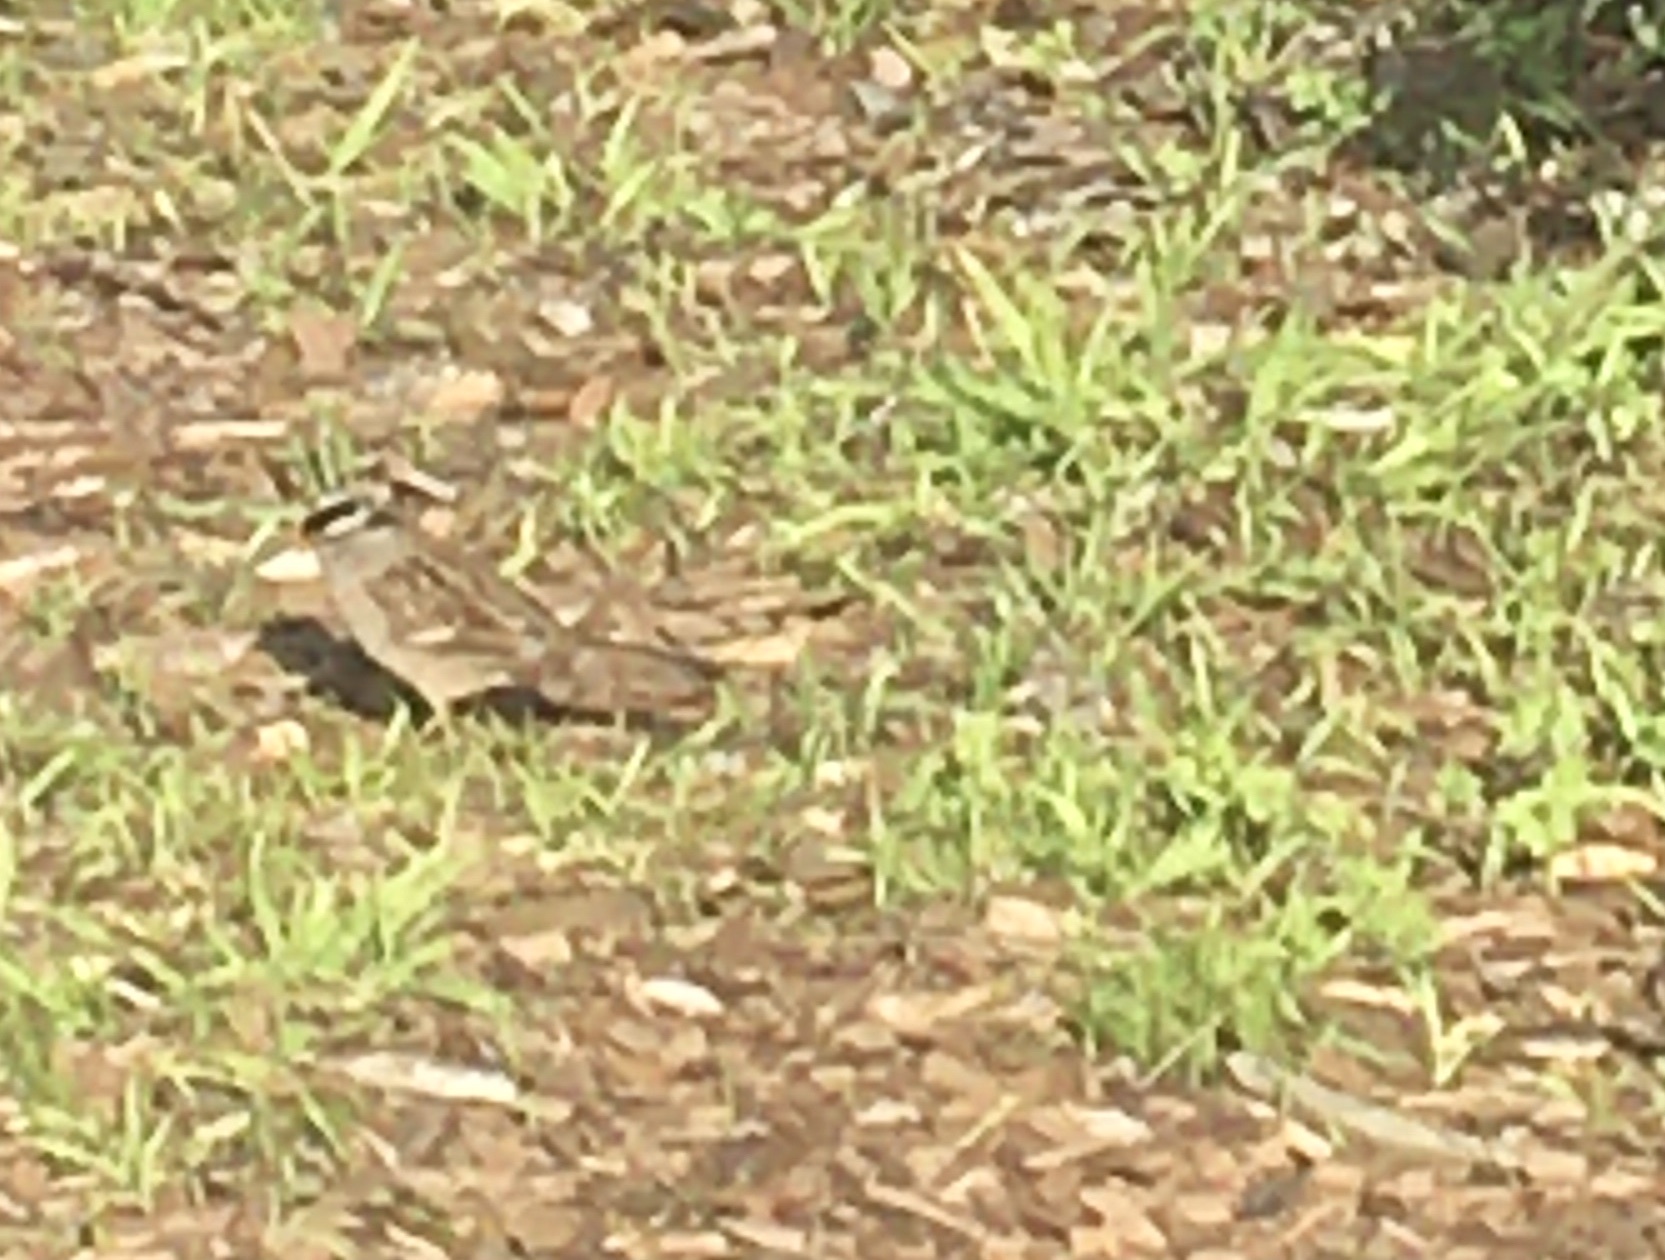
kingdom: Animalia
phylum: Chordata
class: Aves
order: Passeriformes
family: Passerellidae
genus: Zonotrichia
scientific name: Zonotrichia leucophrys
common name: White-crowned sparrow
